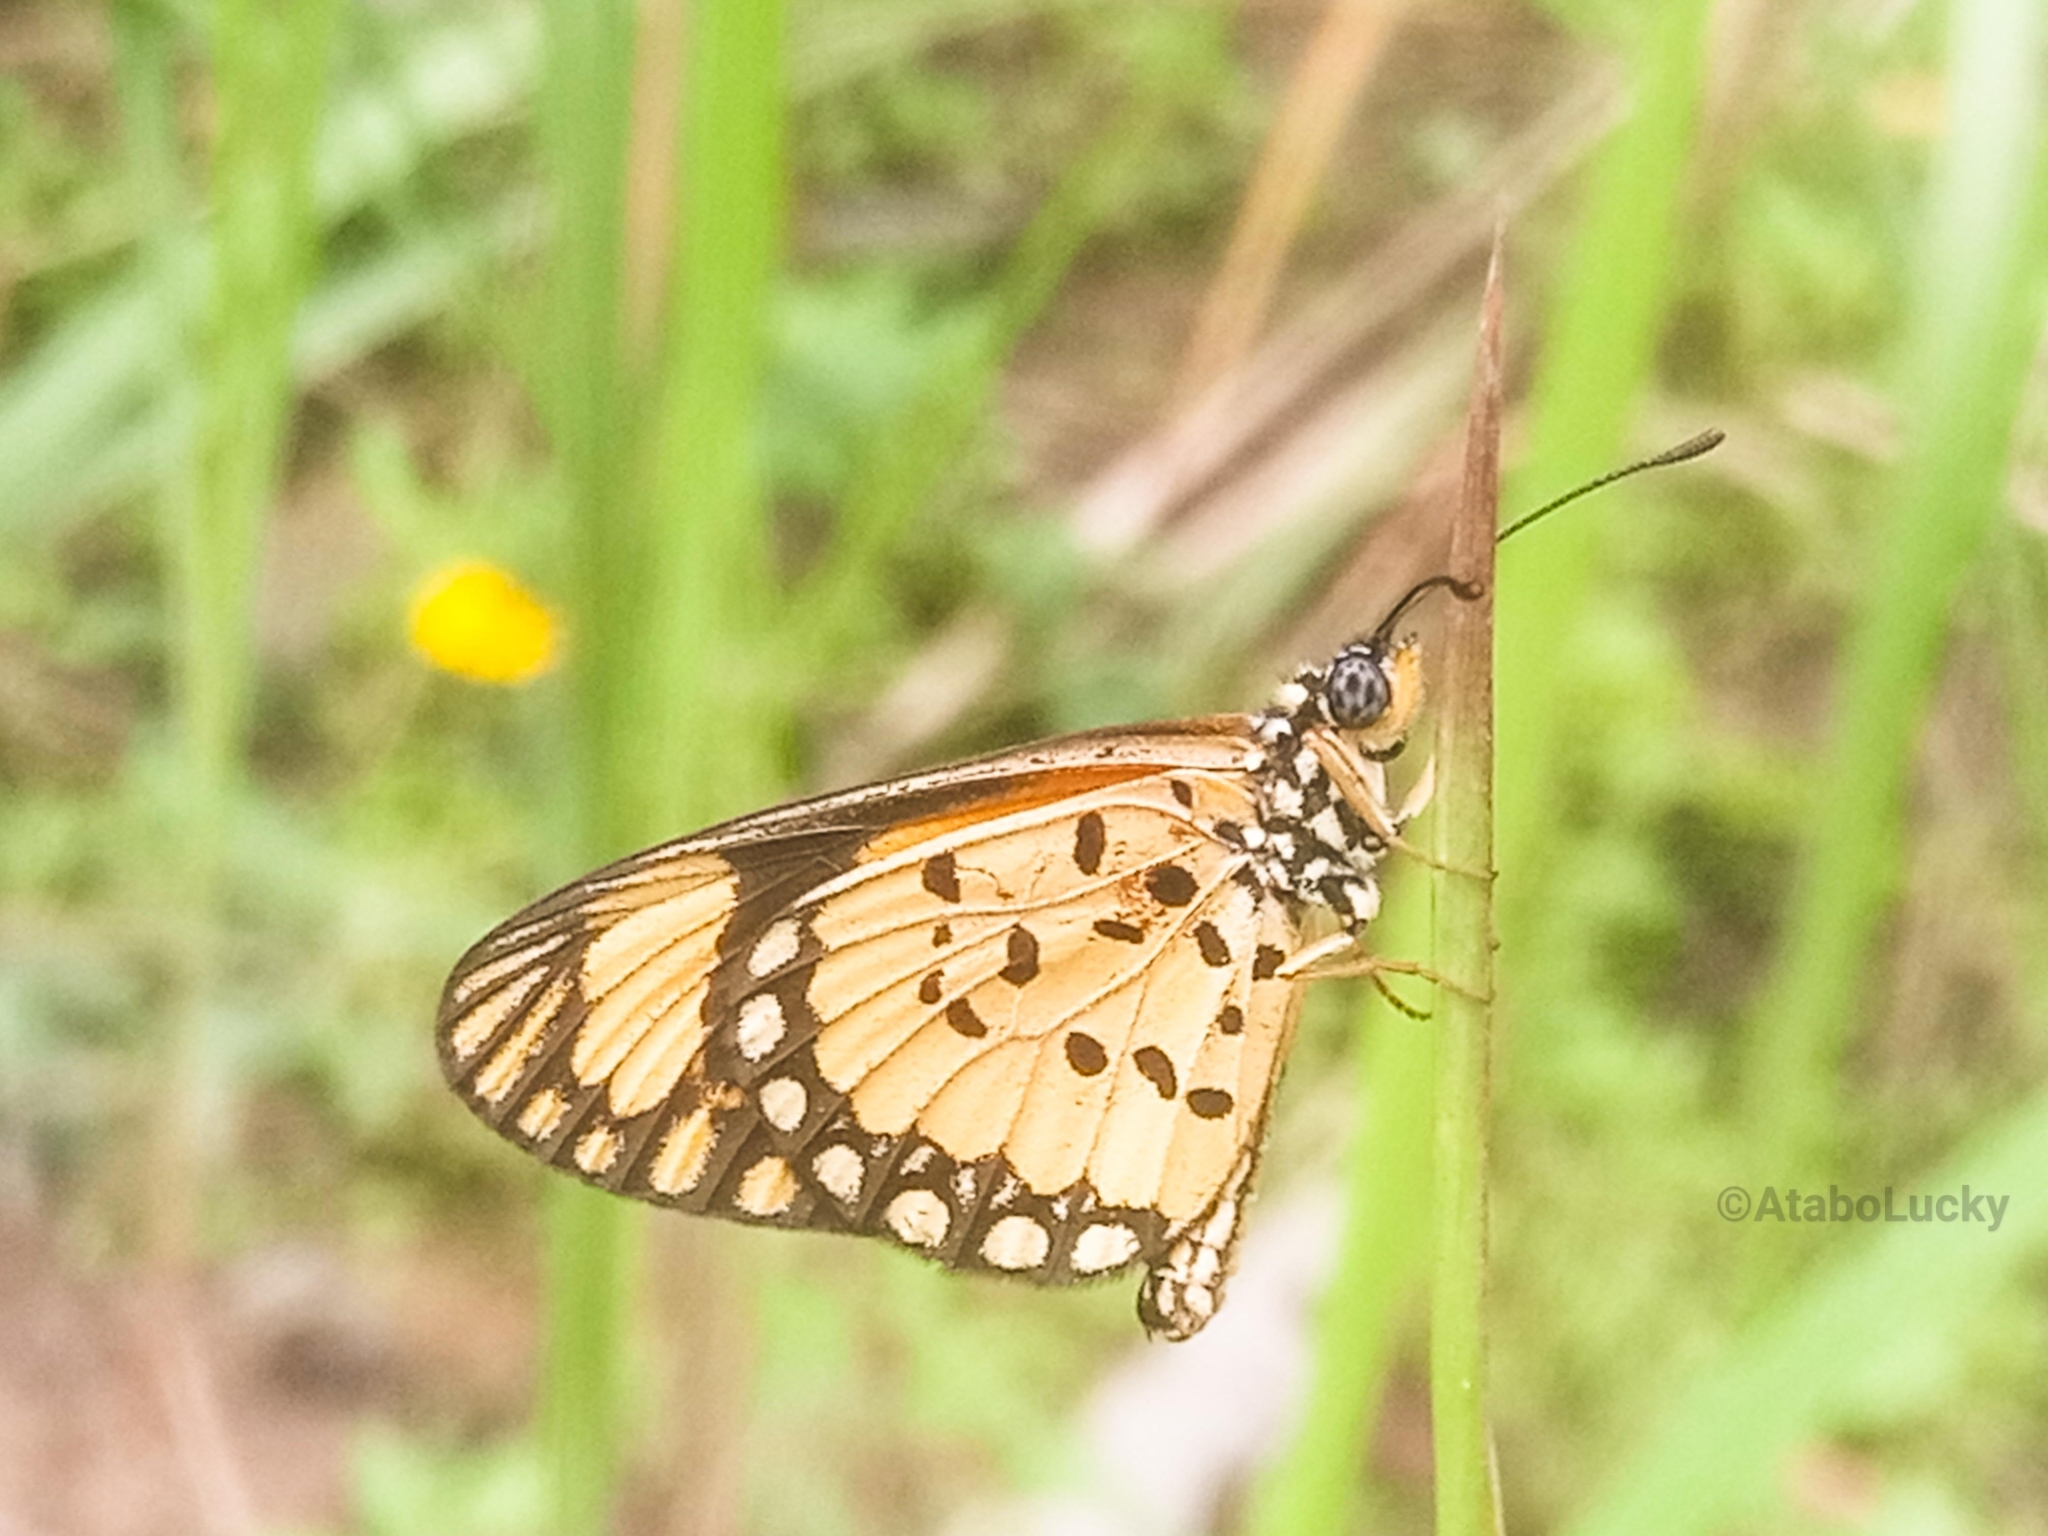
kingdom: Animalia
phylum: Arthropoda
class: Insecta
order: Lepidoptera
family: Nymphalidae
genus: Acraea
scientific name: Acraea Telchinia serena
